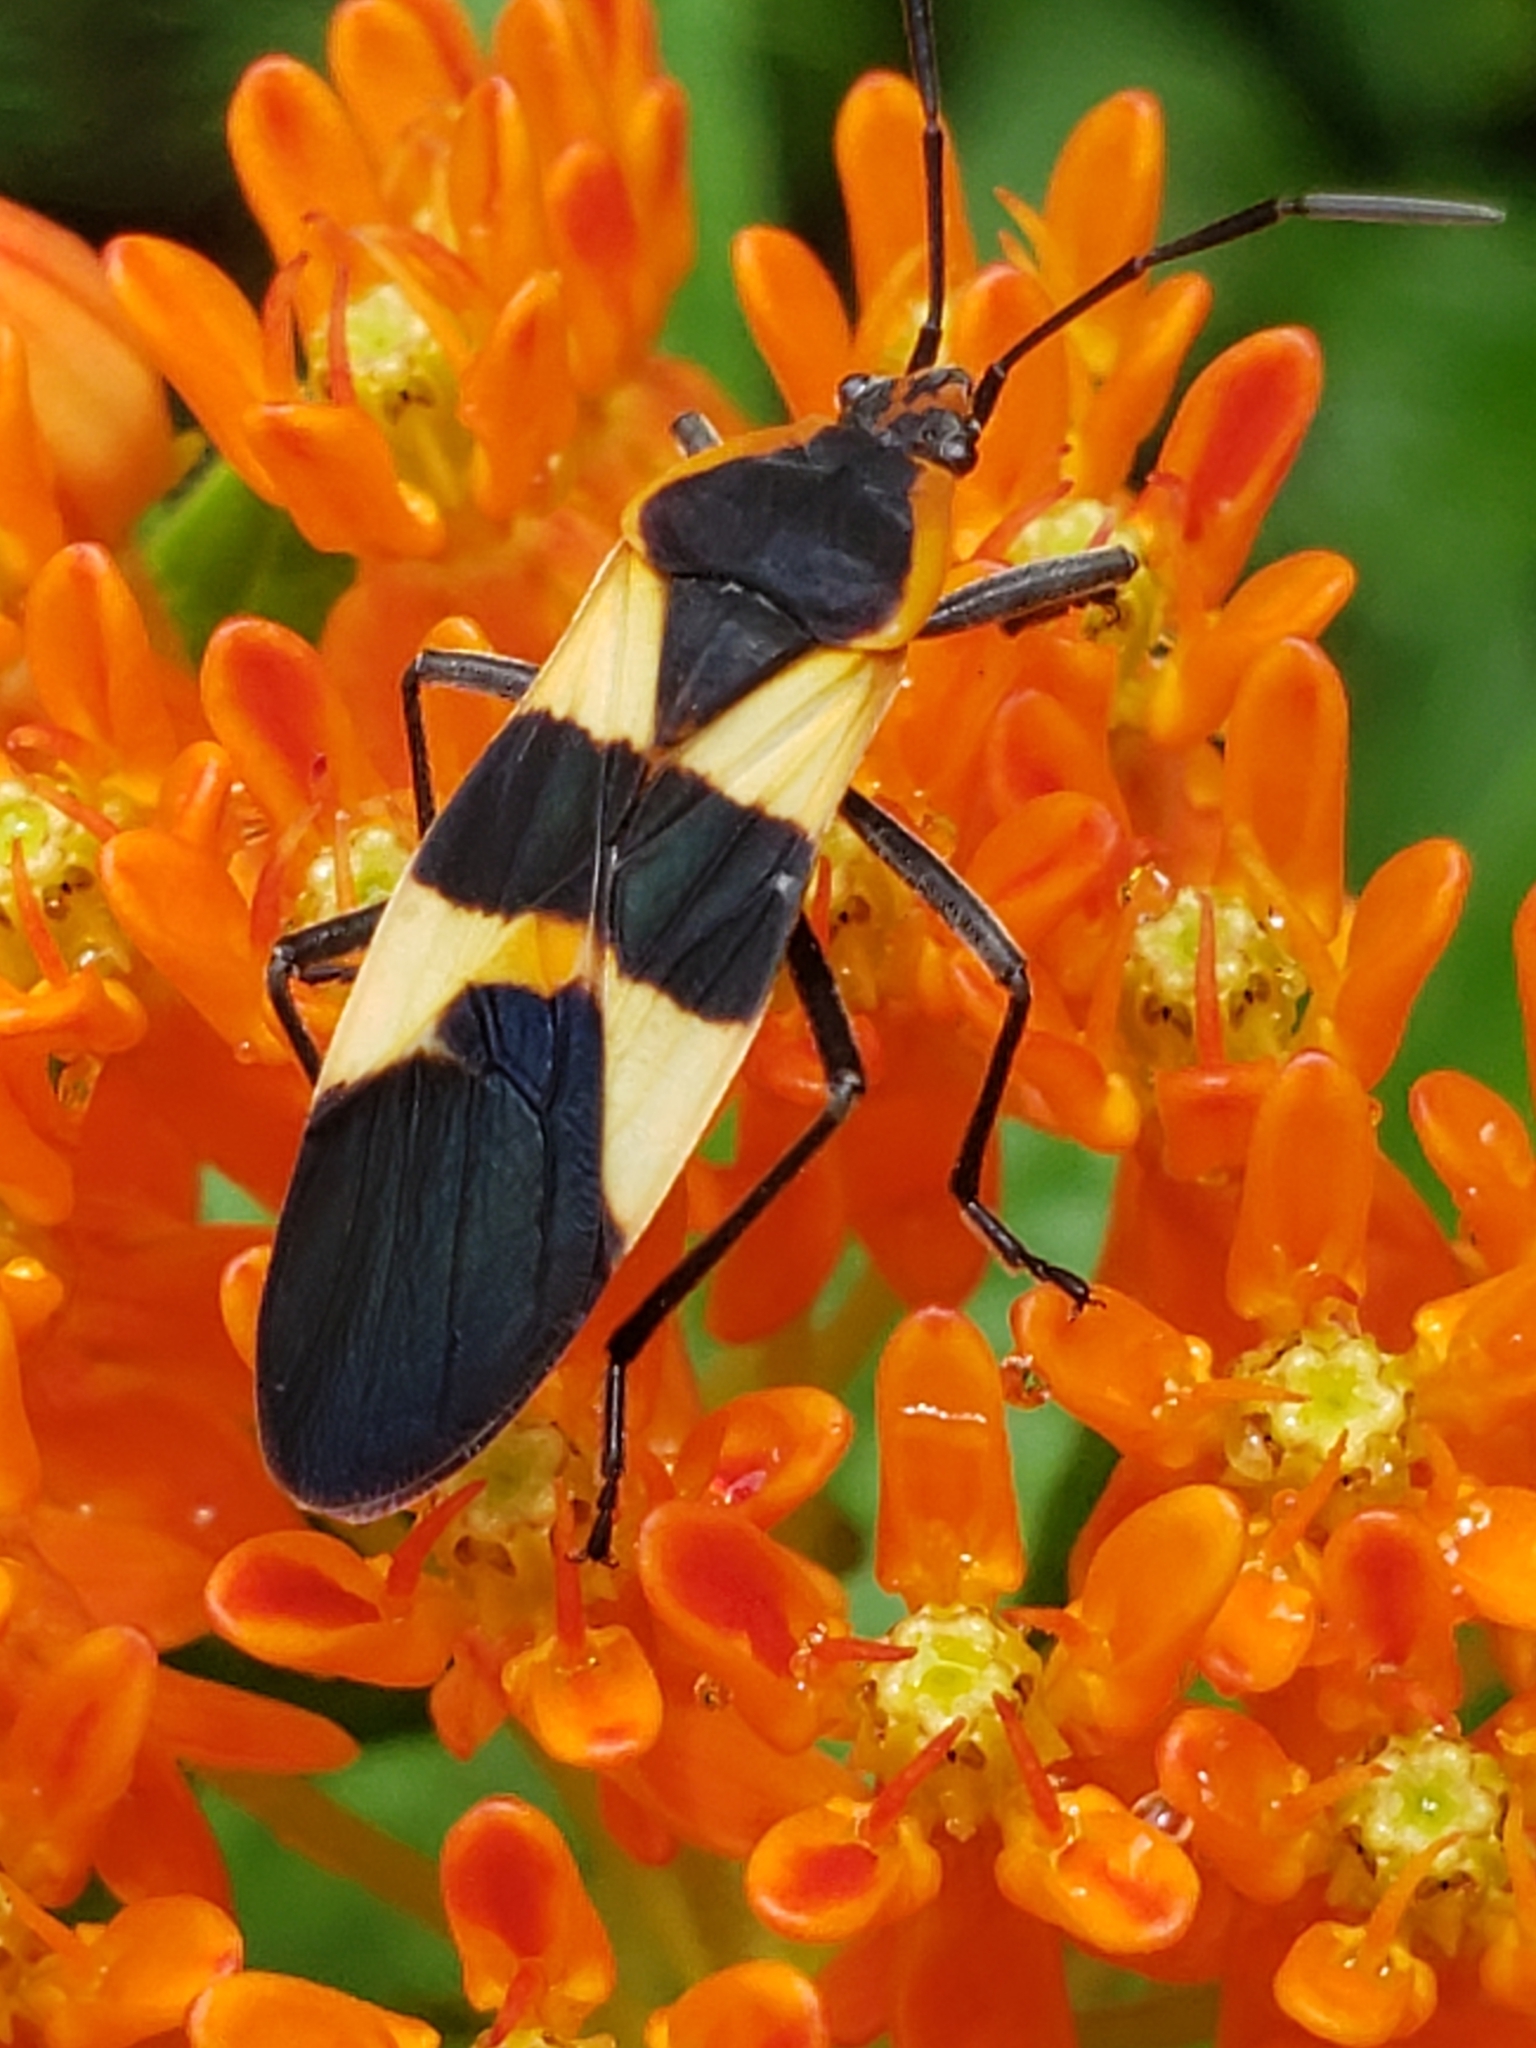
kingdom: Animalia
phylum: Arthropoda
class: Insecta
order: Hemiptera
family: Lygaeidae
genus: Oncopeltus
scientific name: Oncopeltus fasciatus
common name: Large milkweed bug
